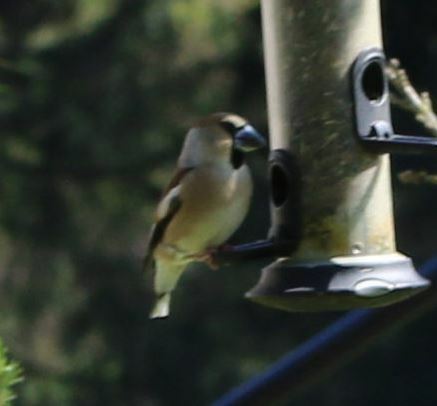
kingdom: Animalia
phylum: Chordata
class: Aves
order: Passeriformes
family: Fringillidae
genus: Coccothraustes
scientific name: Coccothraustes coccothraustes
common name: Hawfinch
